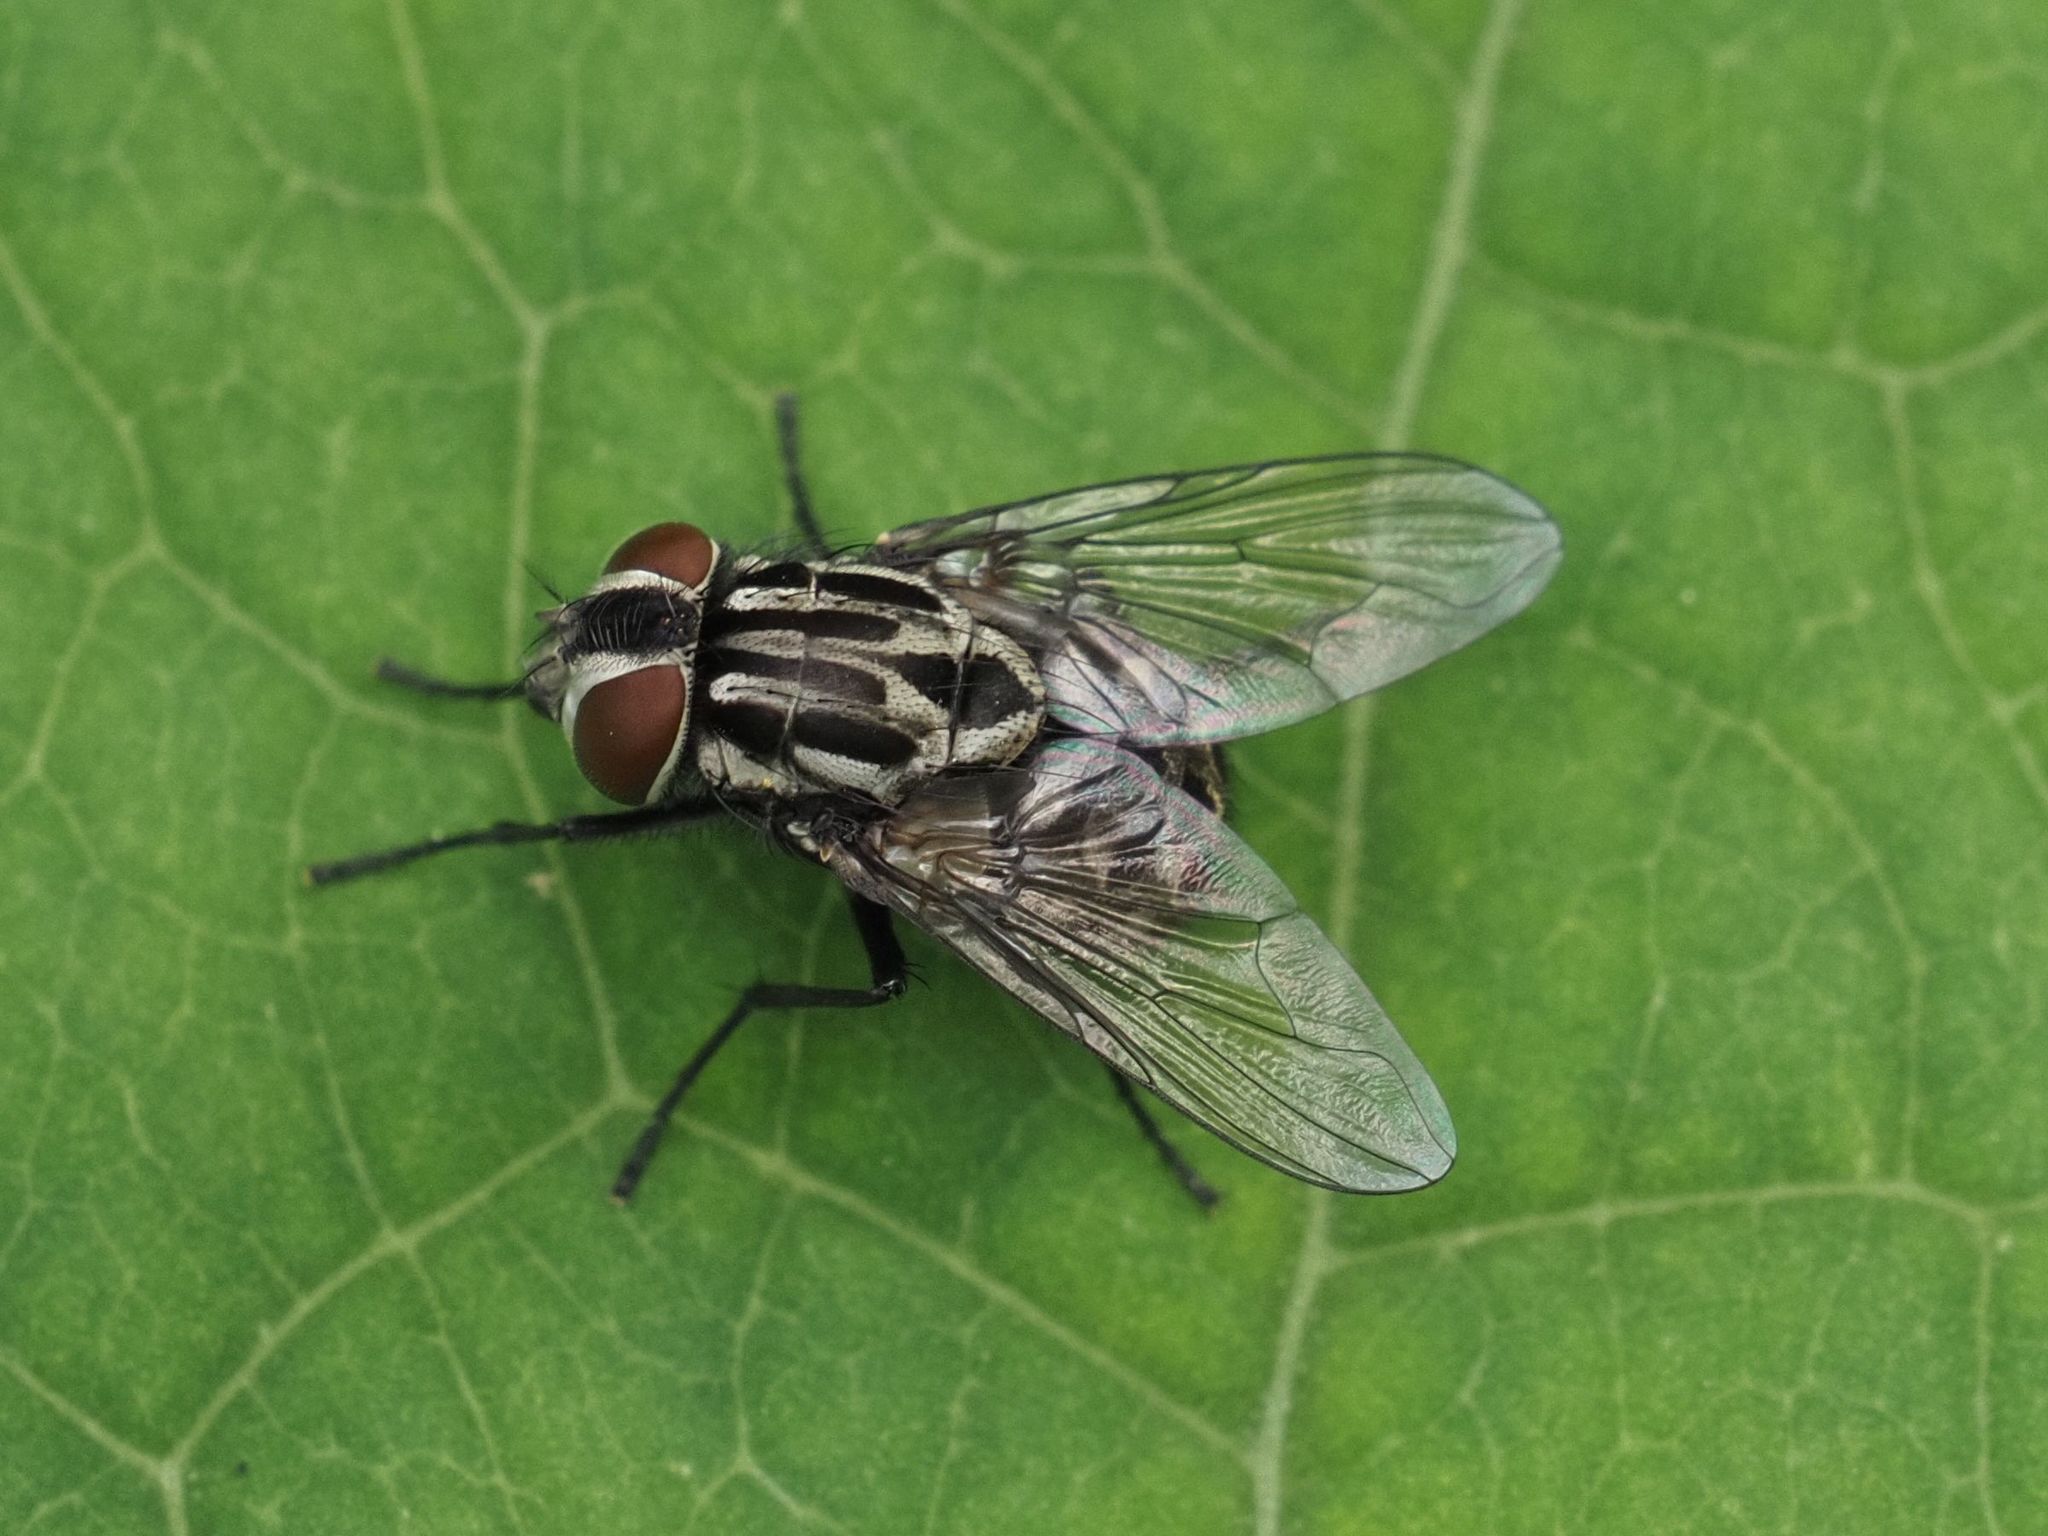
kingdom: Animalia
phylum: Arthropoda
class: Insecta
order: Diptera
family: Muscidae
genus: Graphomya
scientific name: Graphomya maculata
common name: Muscid fly
